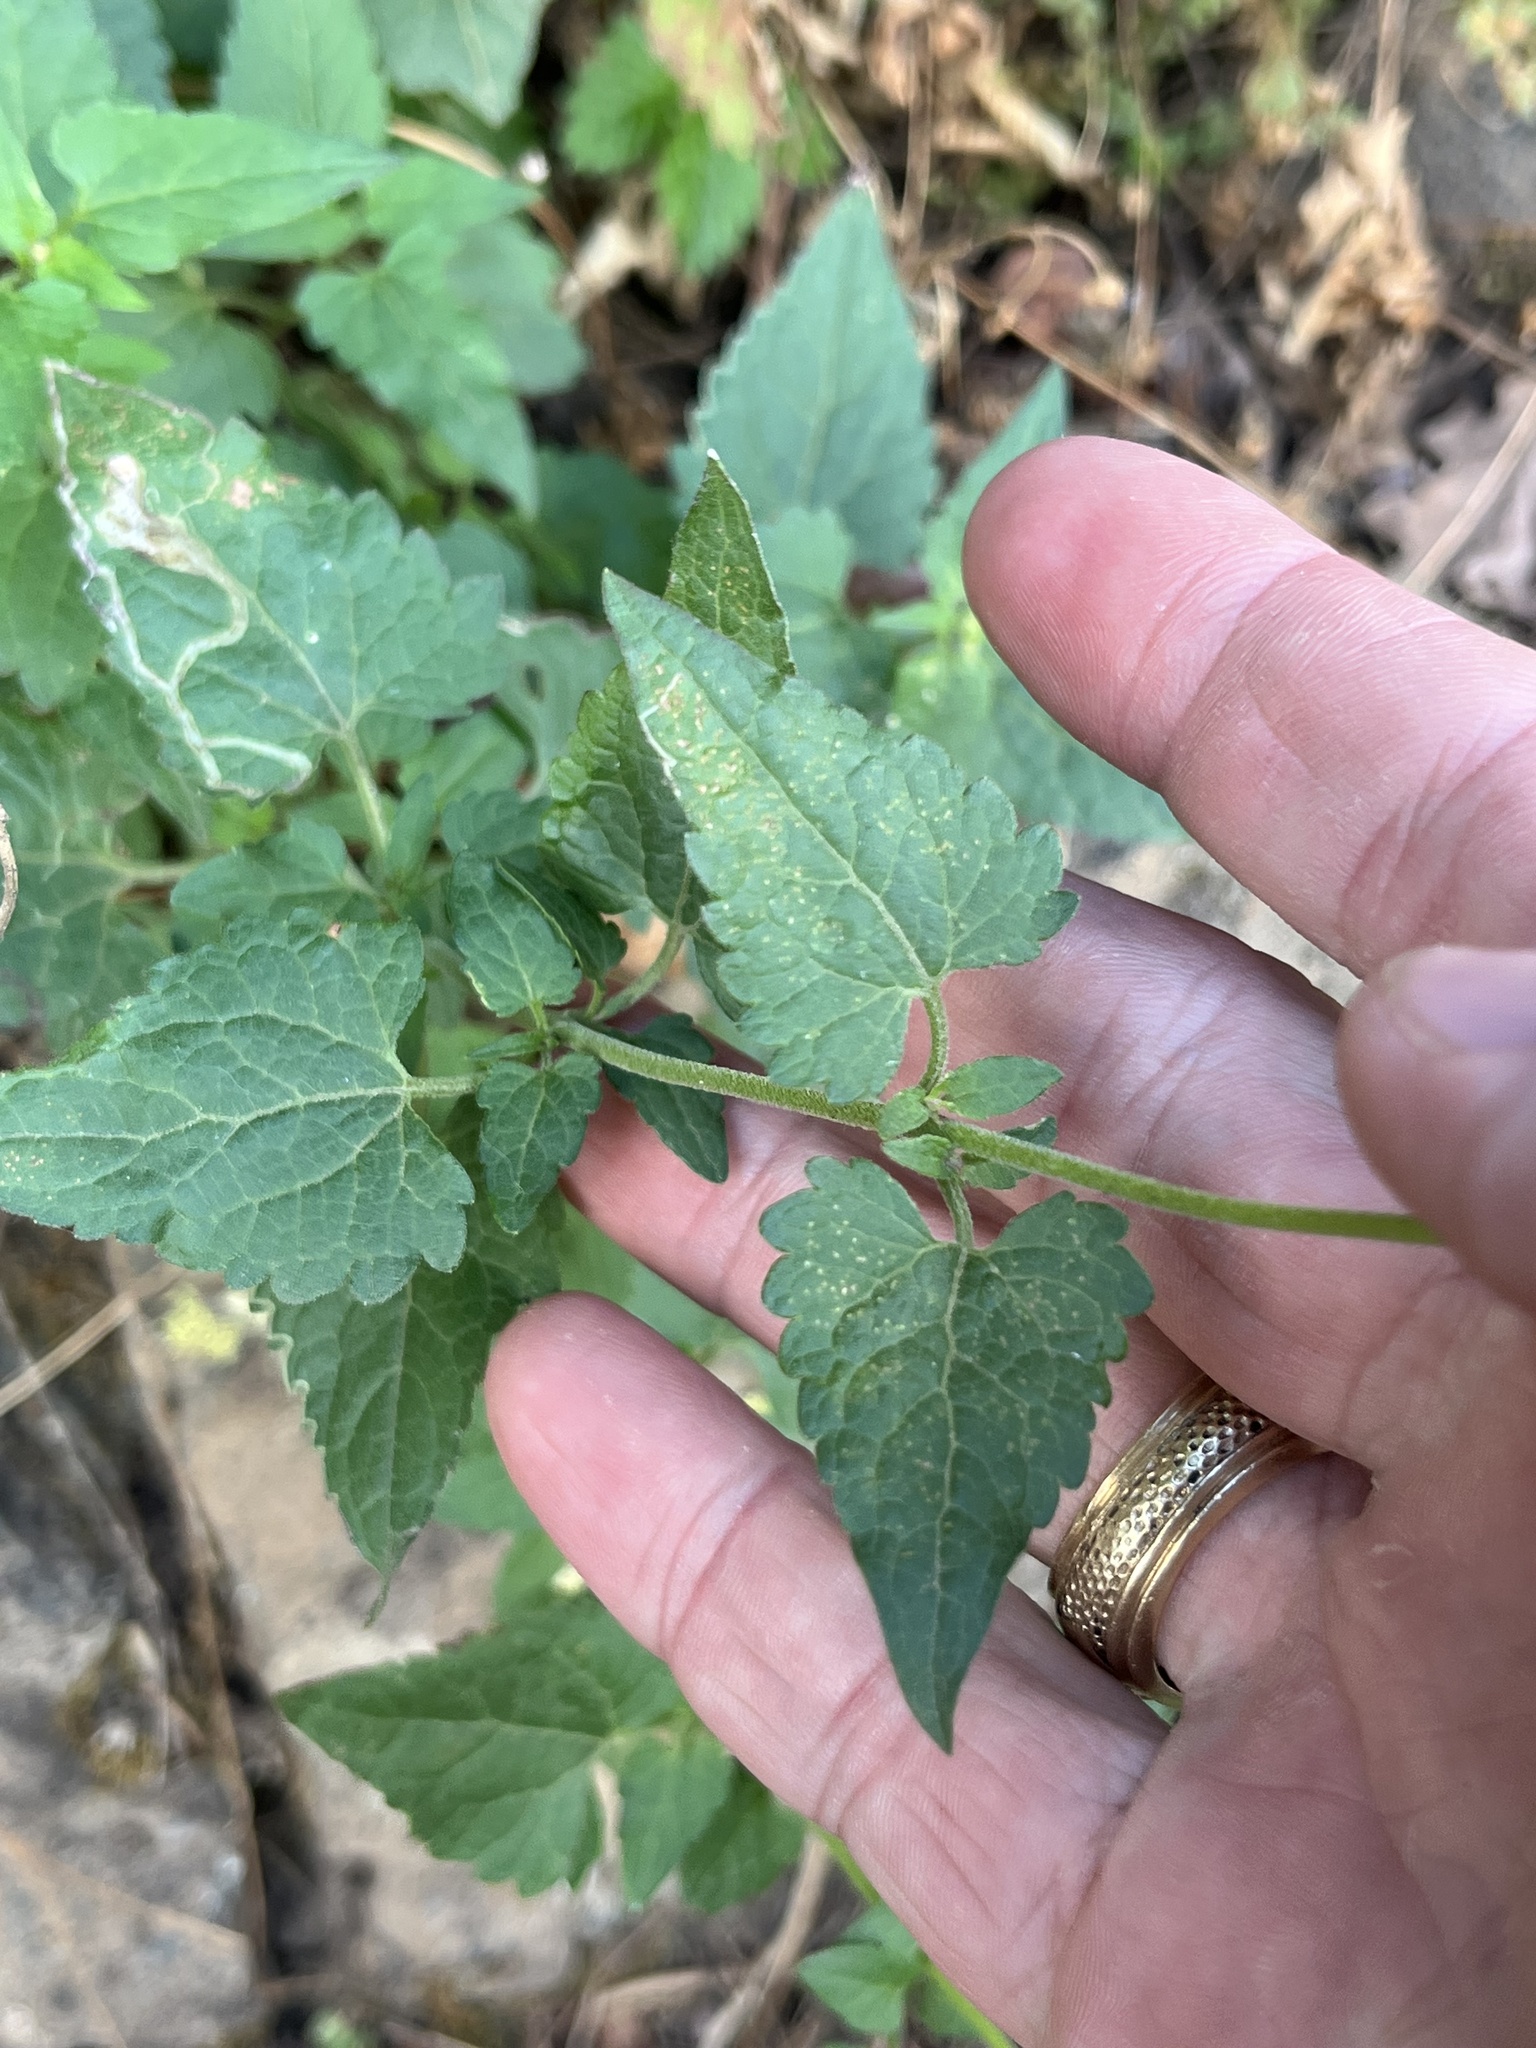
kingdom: Plantae
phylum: Tracheophyta
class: Magnoliopsida
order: Asterales
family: Asteraceae
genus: Brickellia
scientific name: Brickellia grandiflora
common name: Large-flowered brickellia
